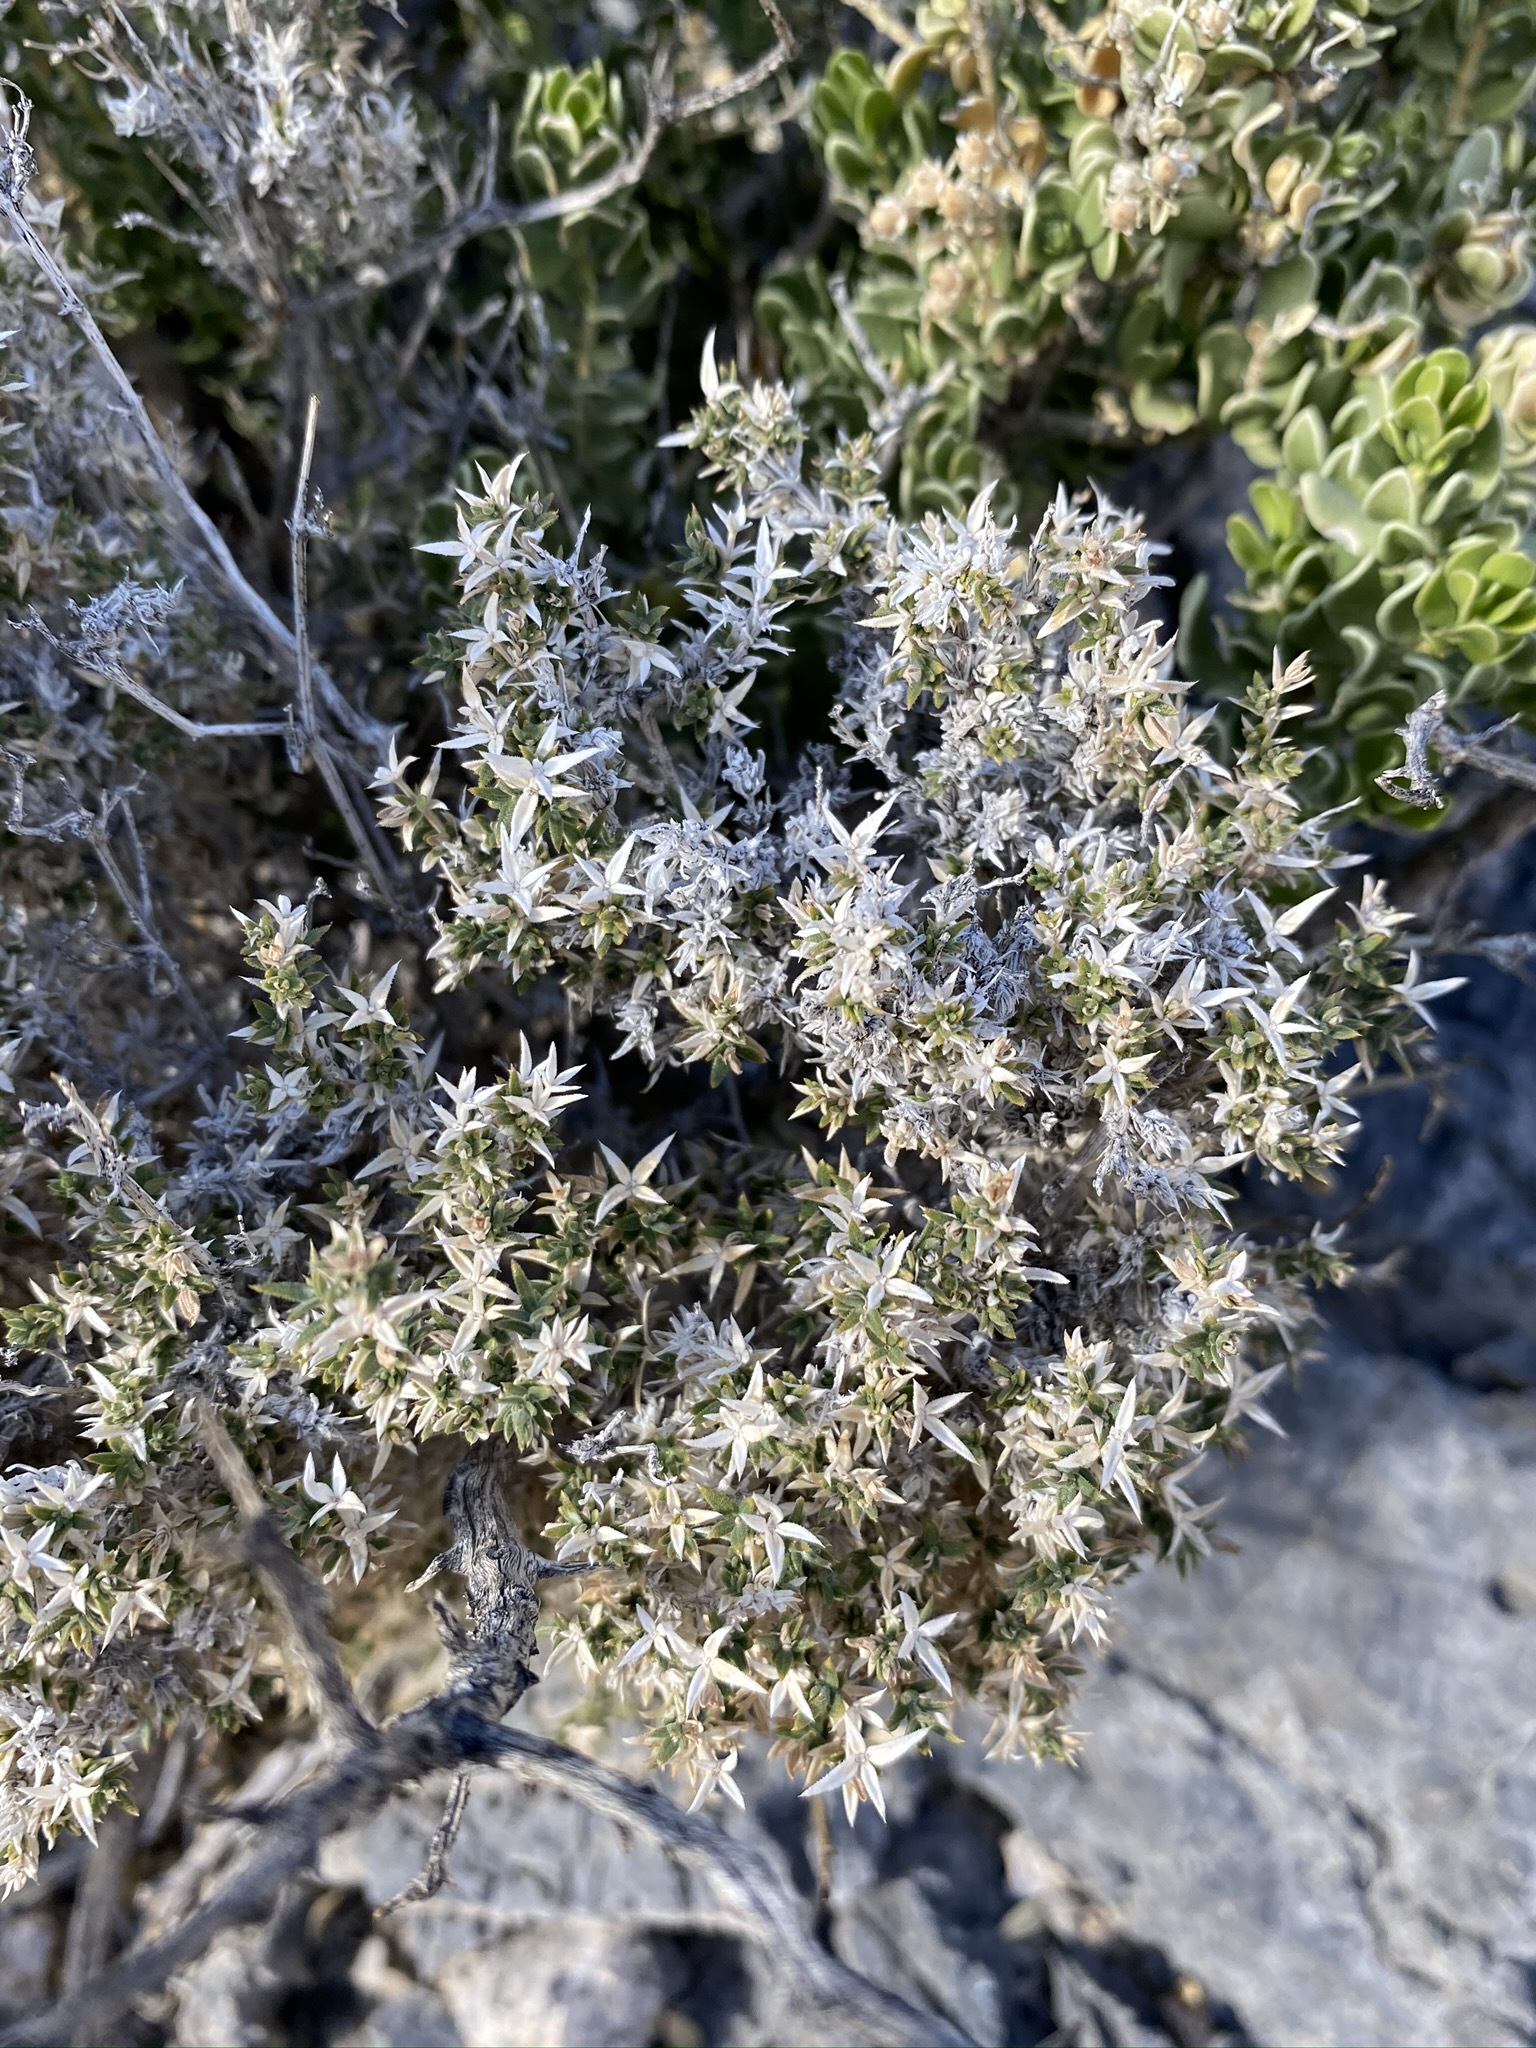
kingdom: Plantae
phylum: Tracheophyta
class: Magnoliopsida
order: Gentianales
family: Rubiaceae
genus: Galium
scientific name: Galium stellatum
